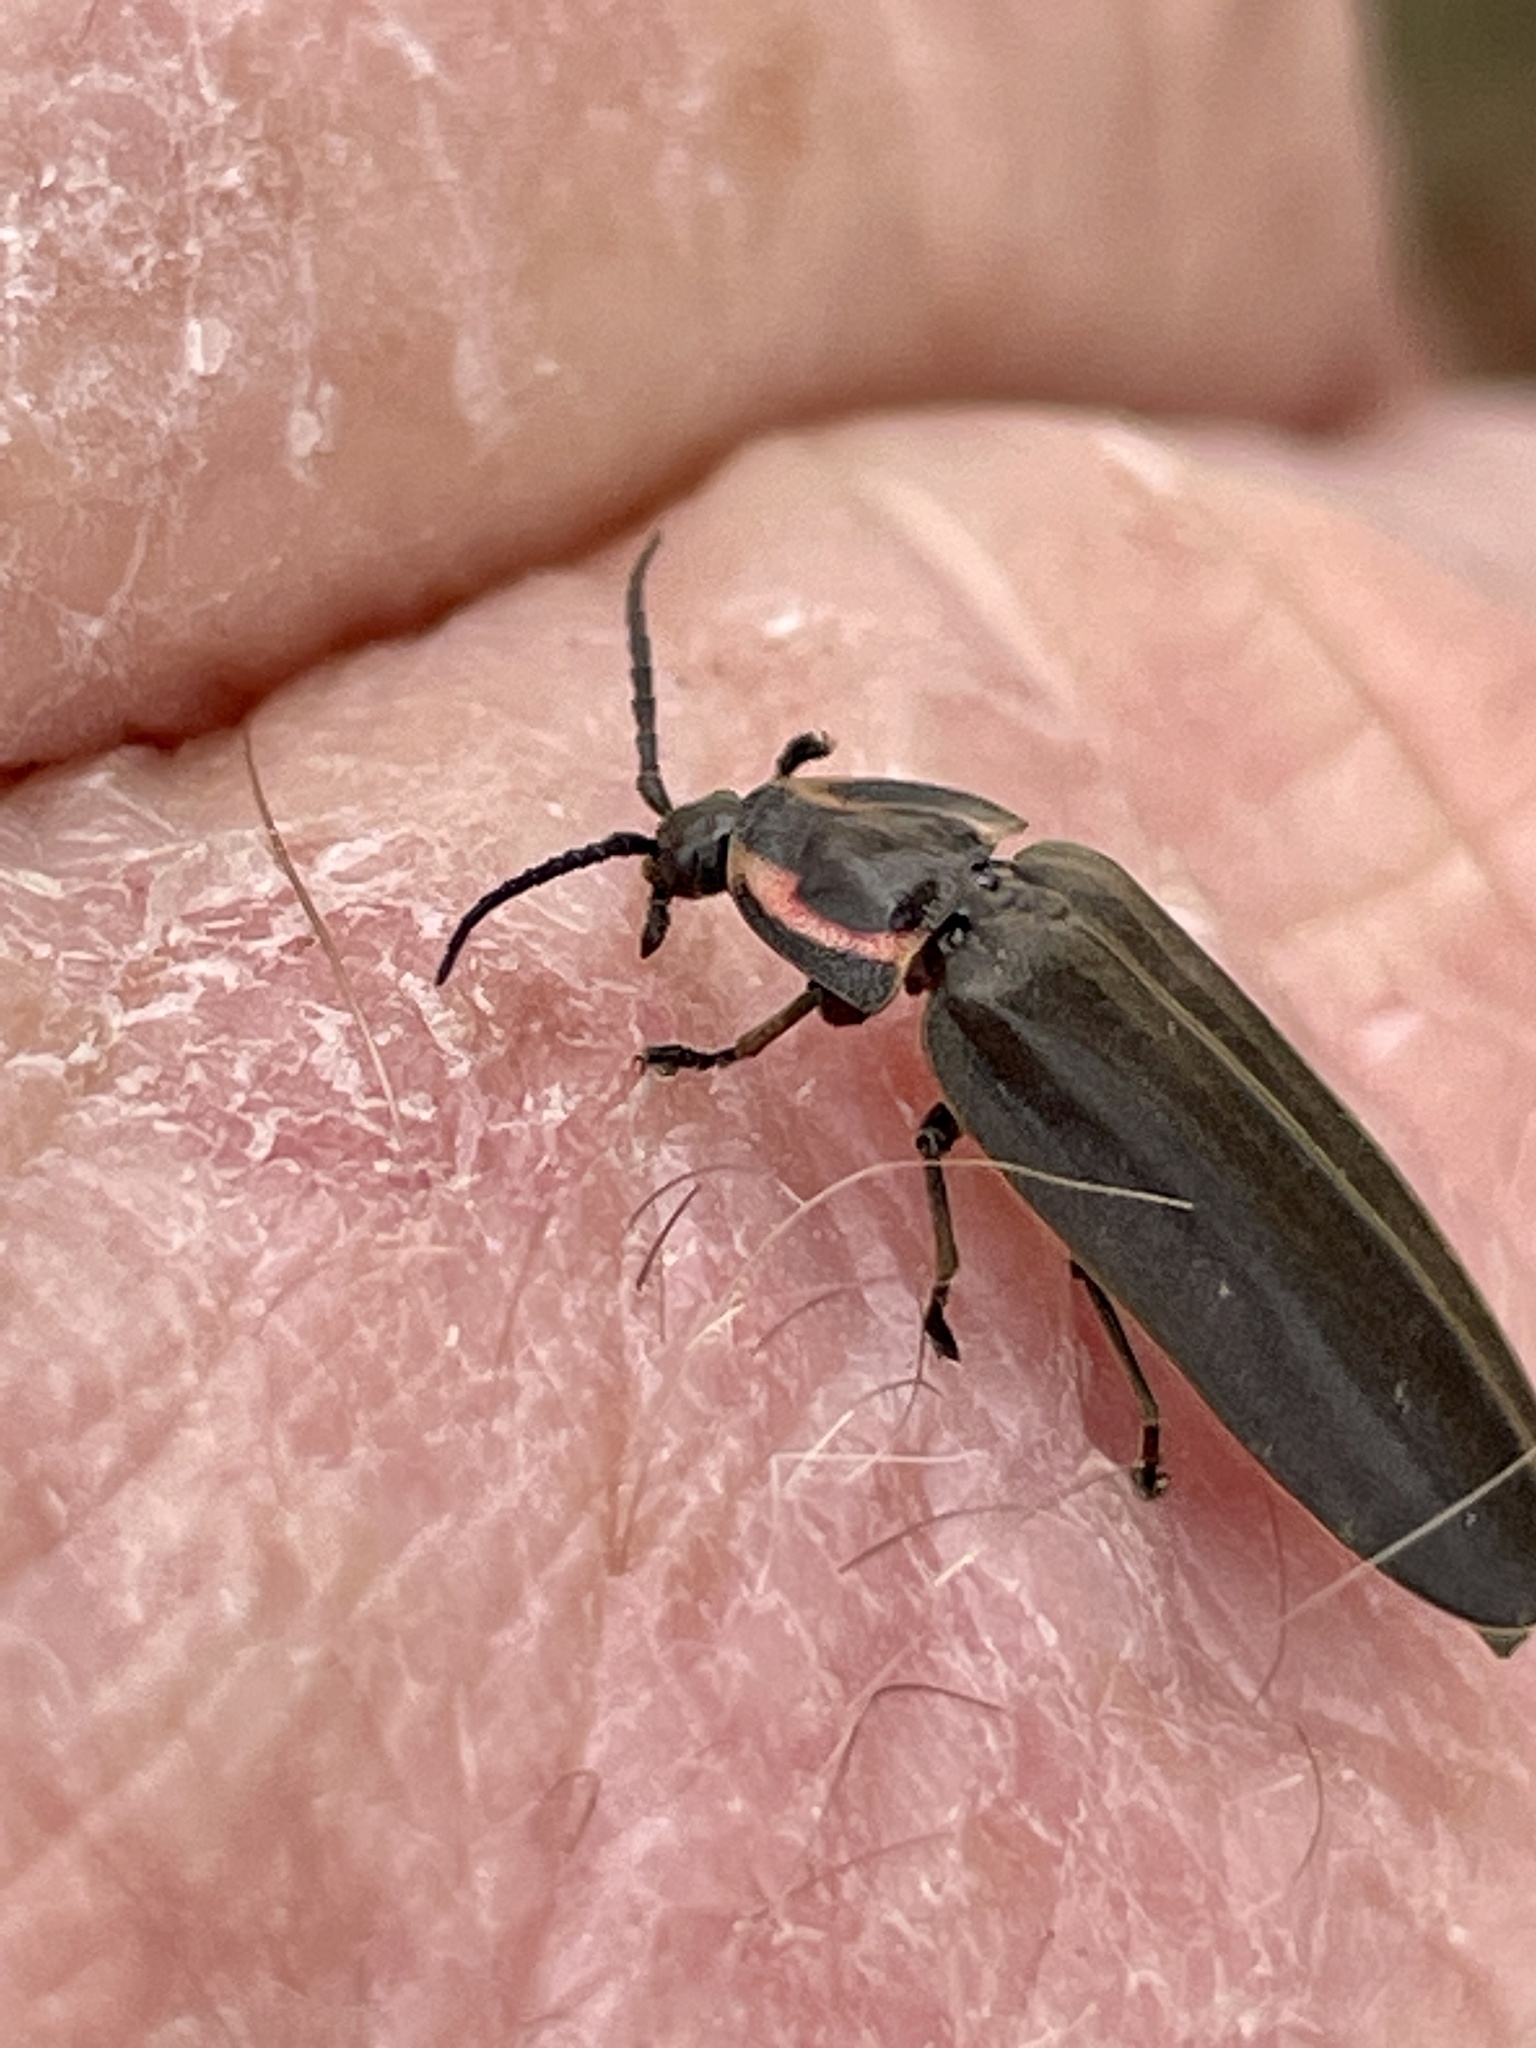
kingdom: Animalia
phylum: Arthropoda
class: Insecta
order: Coleoptera
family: Lampyridae
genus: Photinus
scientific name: Photinus corrusca
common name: Winter firefly
